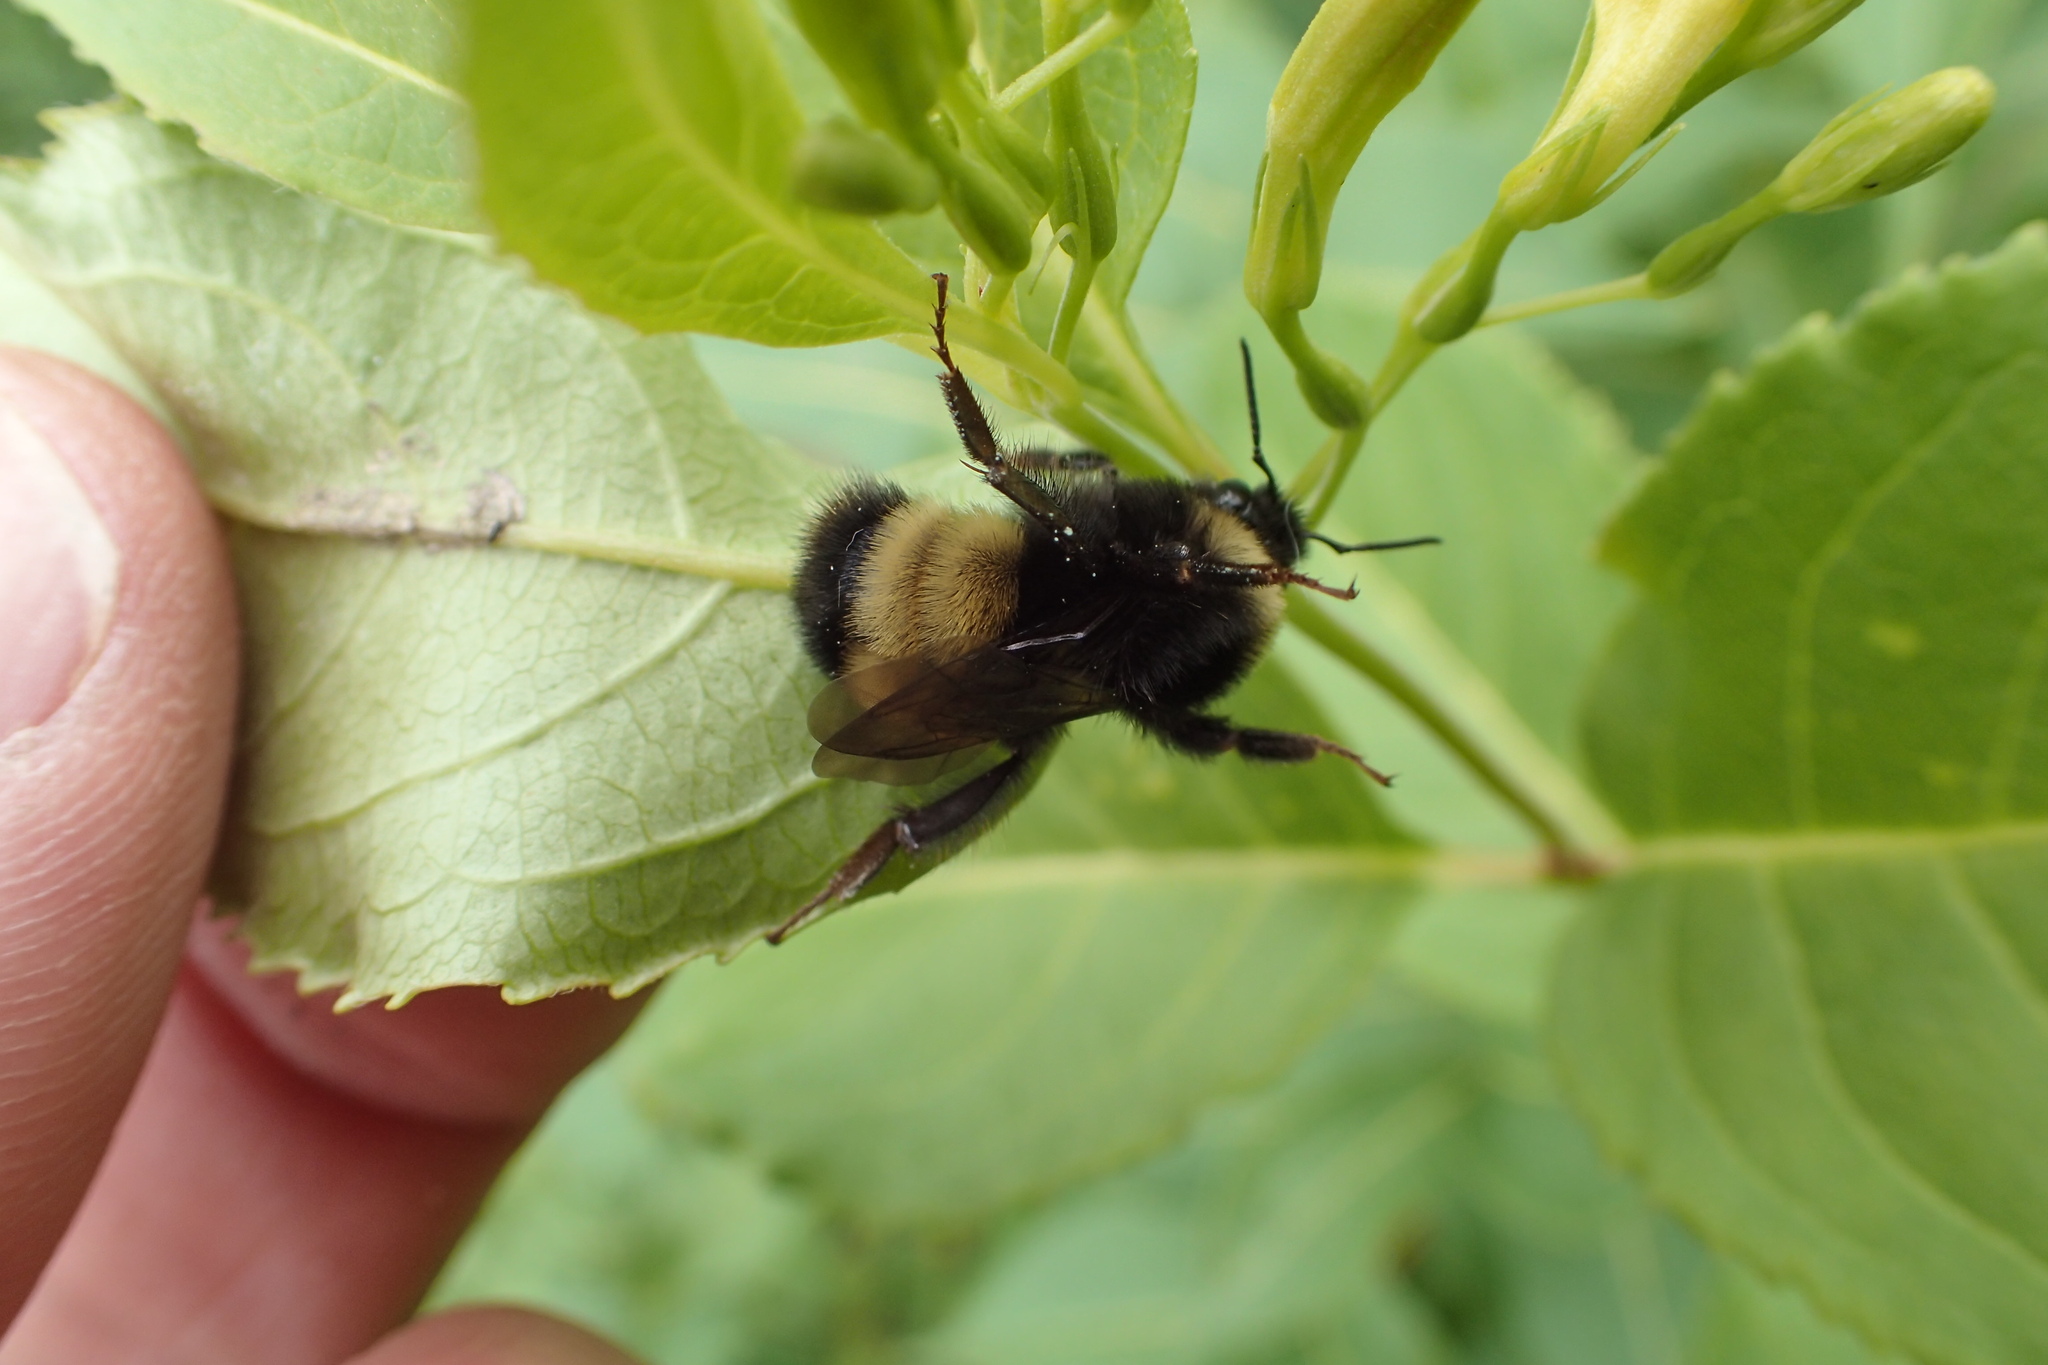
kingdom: Animalia
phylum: Arthropoda
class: Insecta
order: Hymenoptera
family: Apidae
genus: Bombus
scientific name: Bombus terricola
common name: Yellow-banded bumble bee
